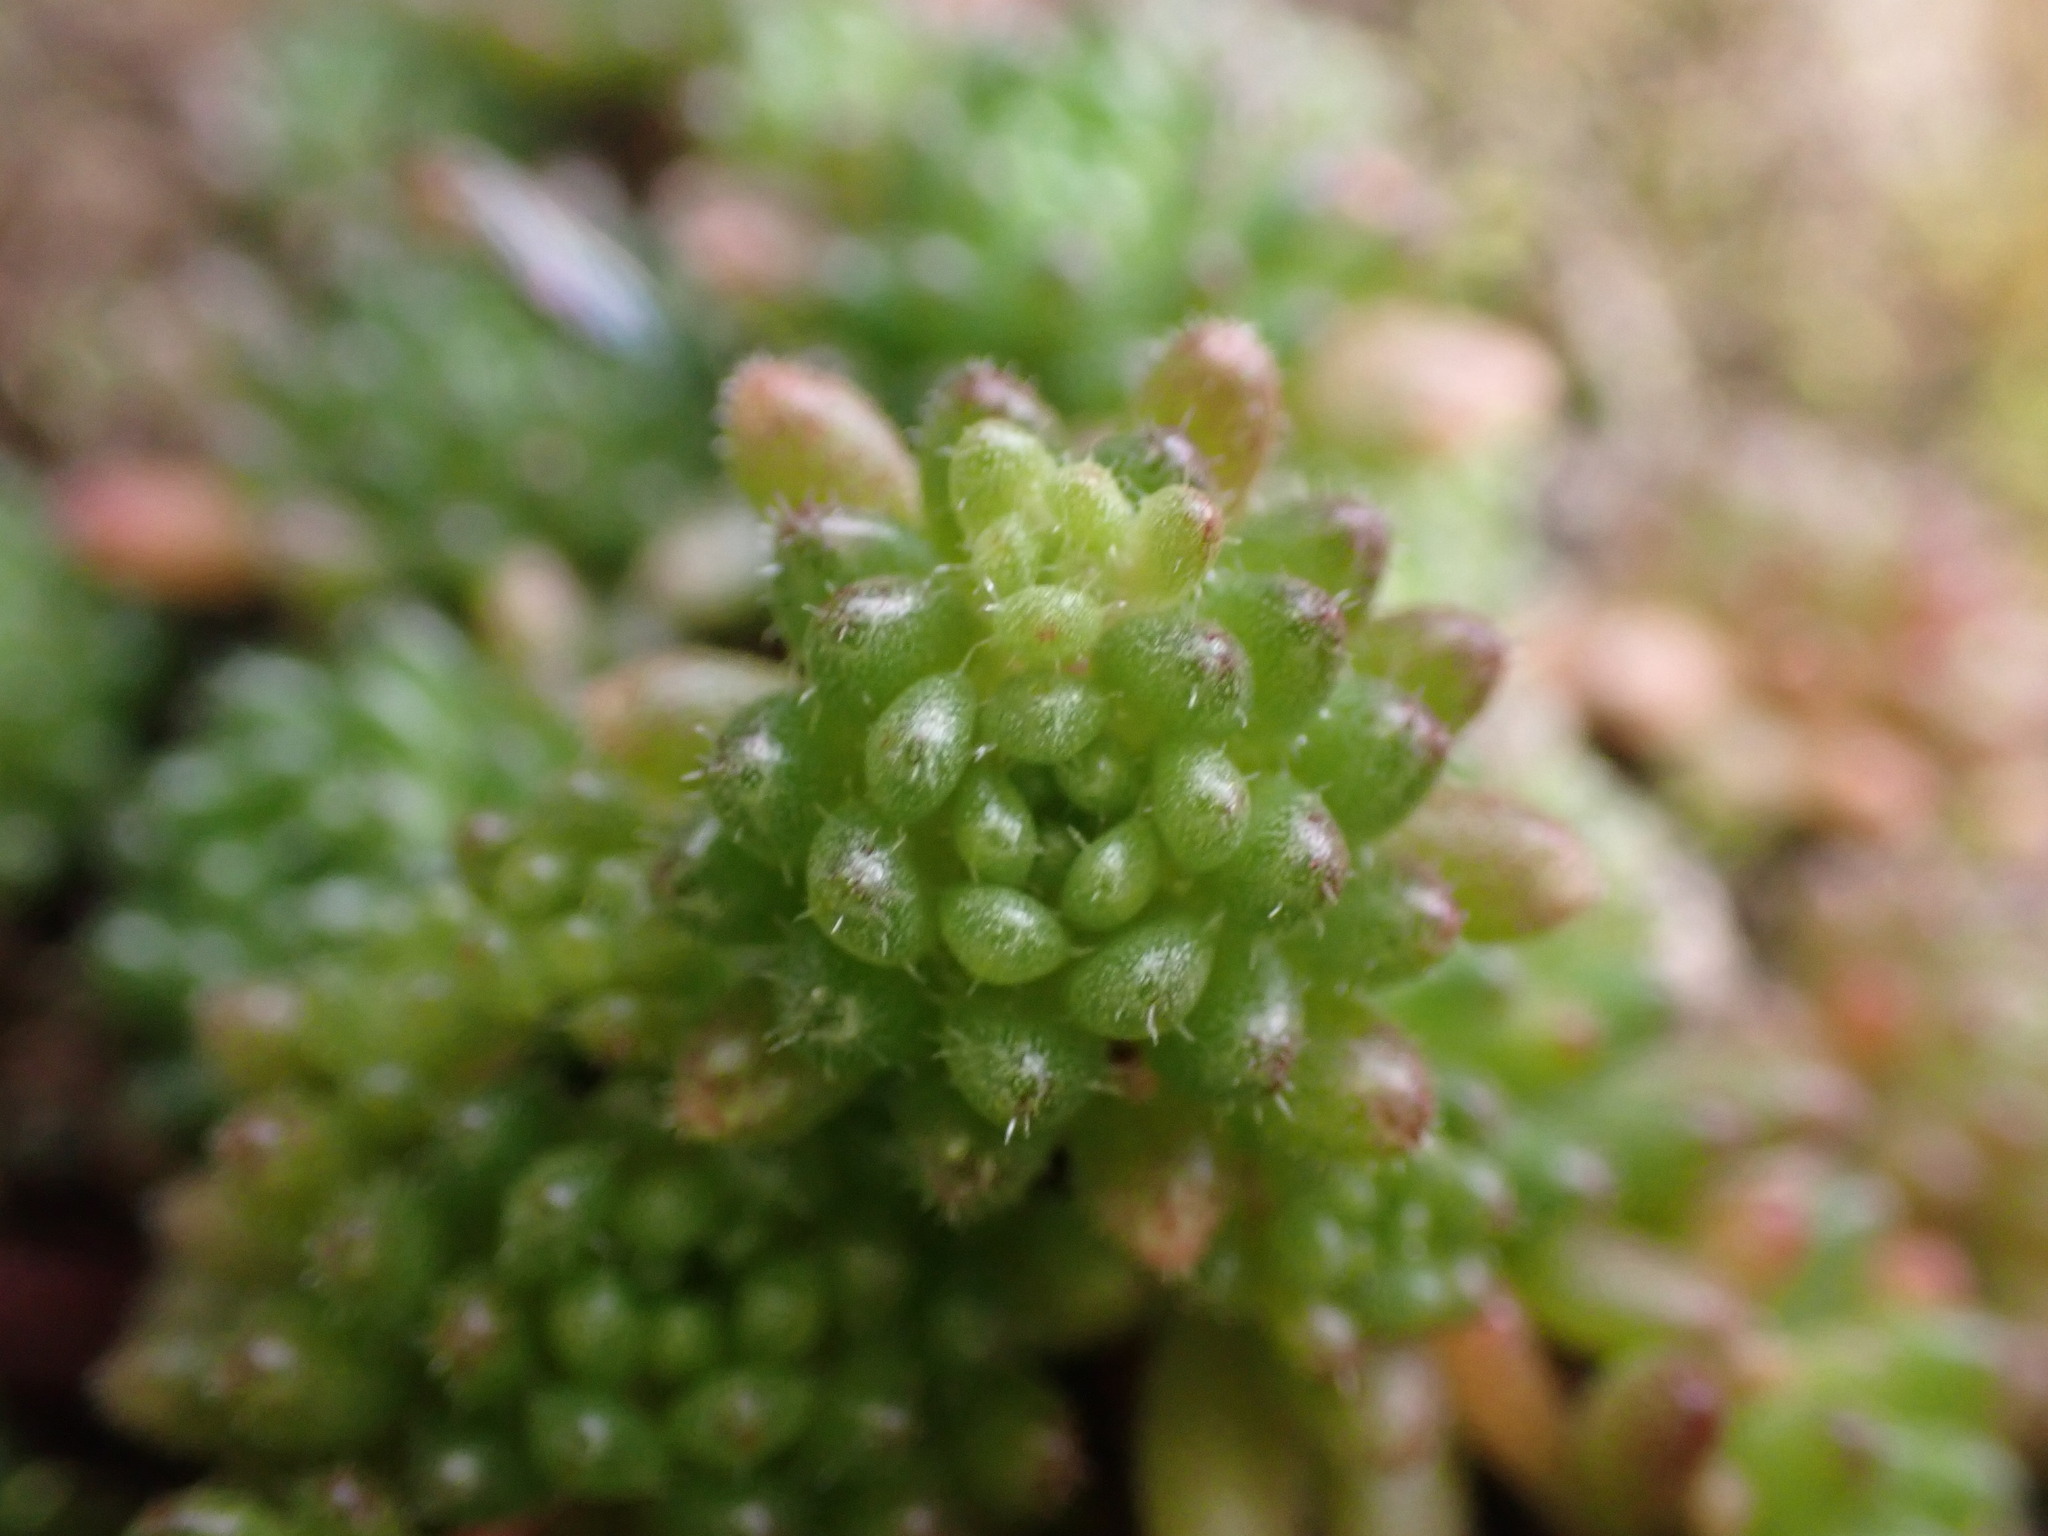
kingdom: Plantae
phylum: Tracheophyta
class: Magnoliopsida
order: Saxifragales
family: Crassulaceae
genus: Sedum
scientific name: Sedum hirsutum
